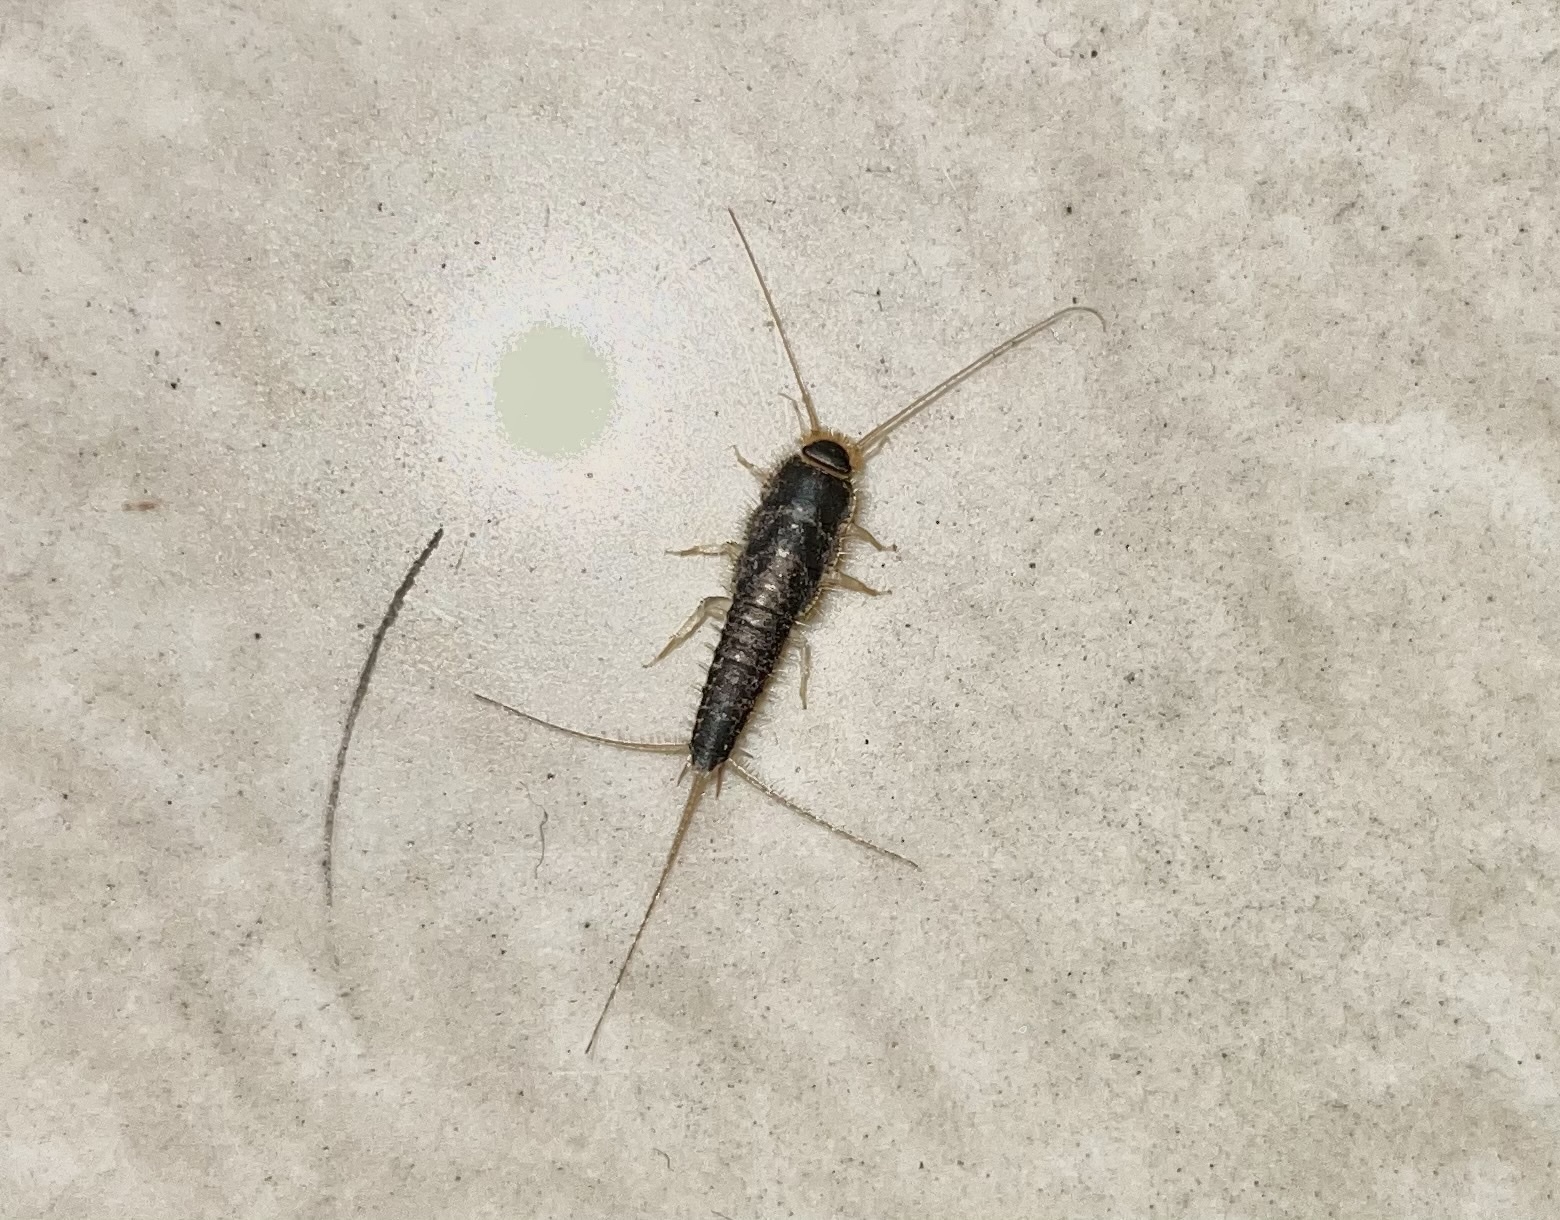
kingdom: Animalia
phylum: Arthropoda
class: Insecta
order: Zygentoma
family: Lepismatidae
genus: Ctenolepisma
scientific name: Ctenolepisma longicaudatum
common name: Silverfish
